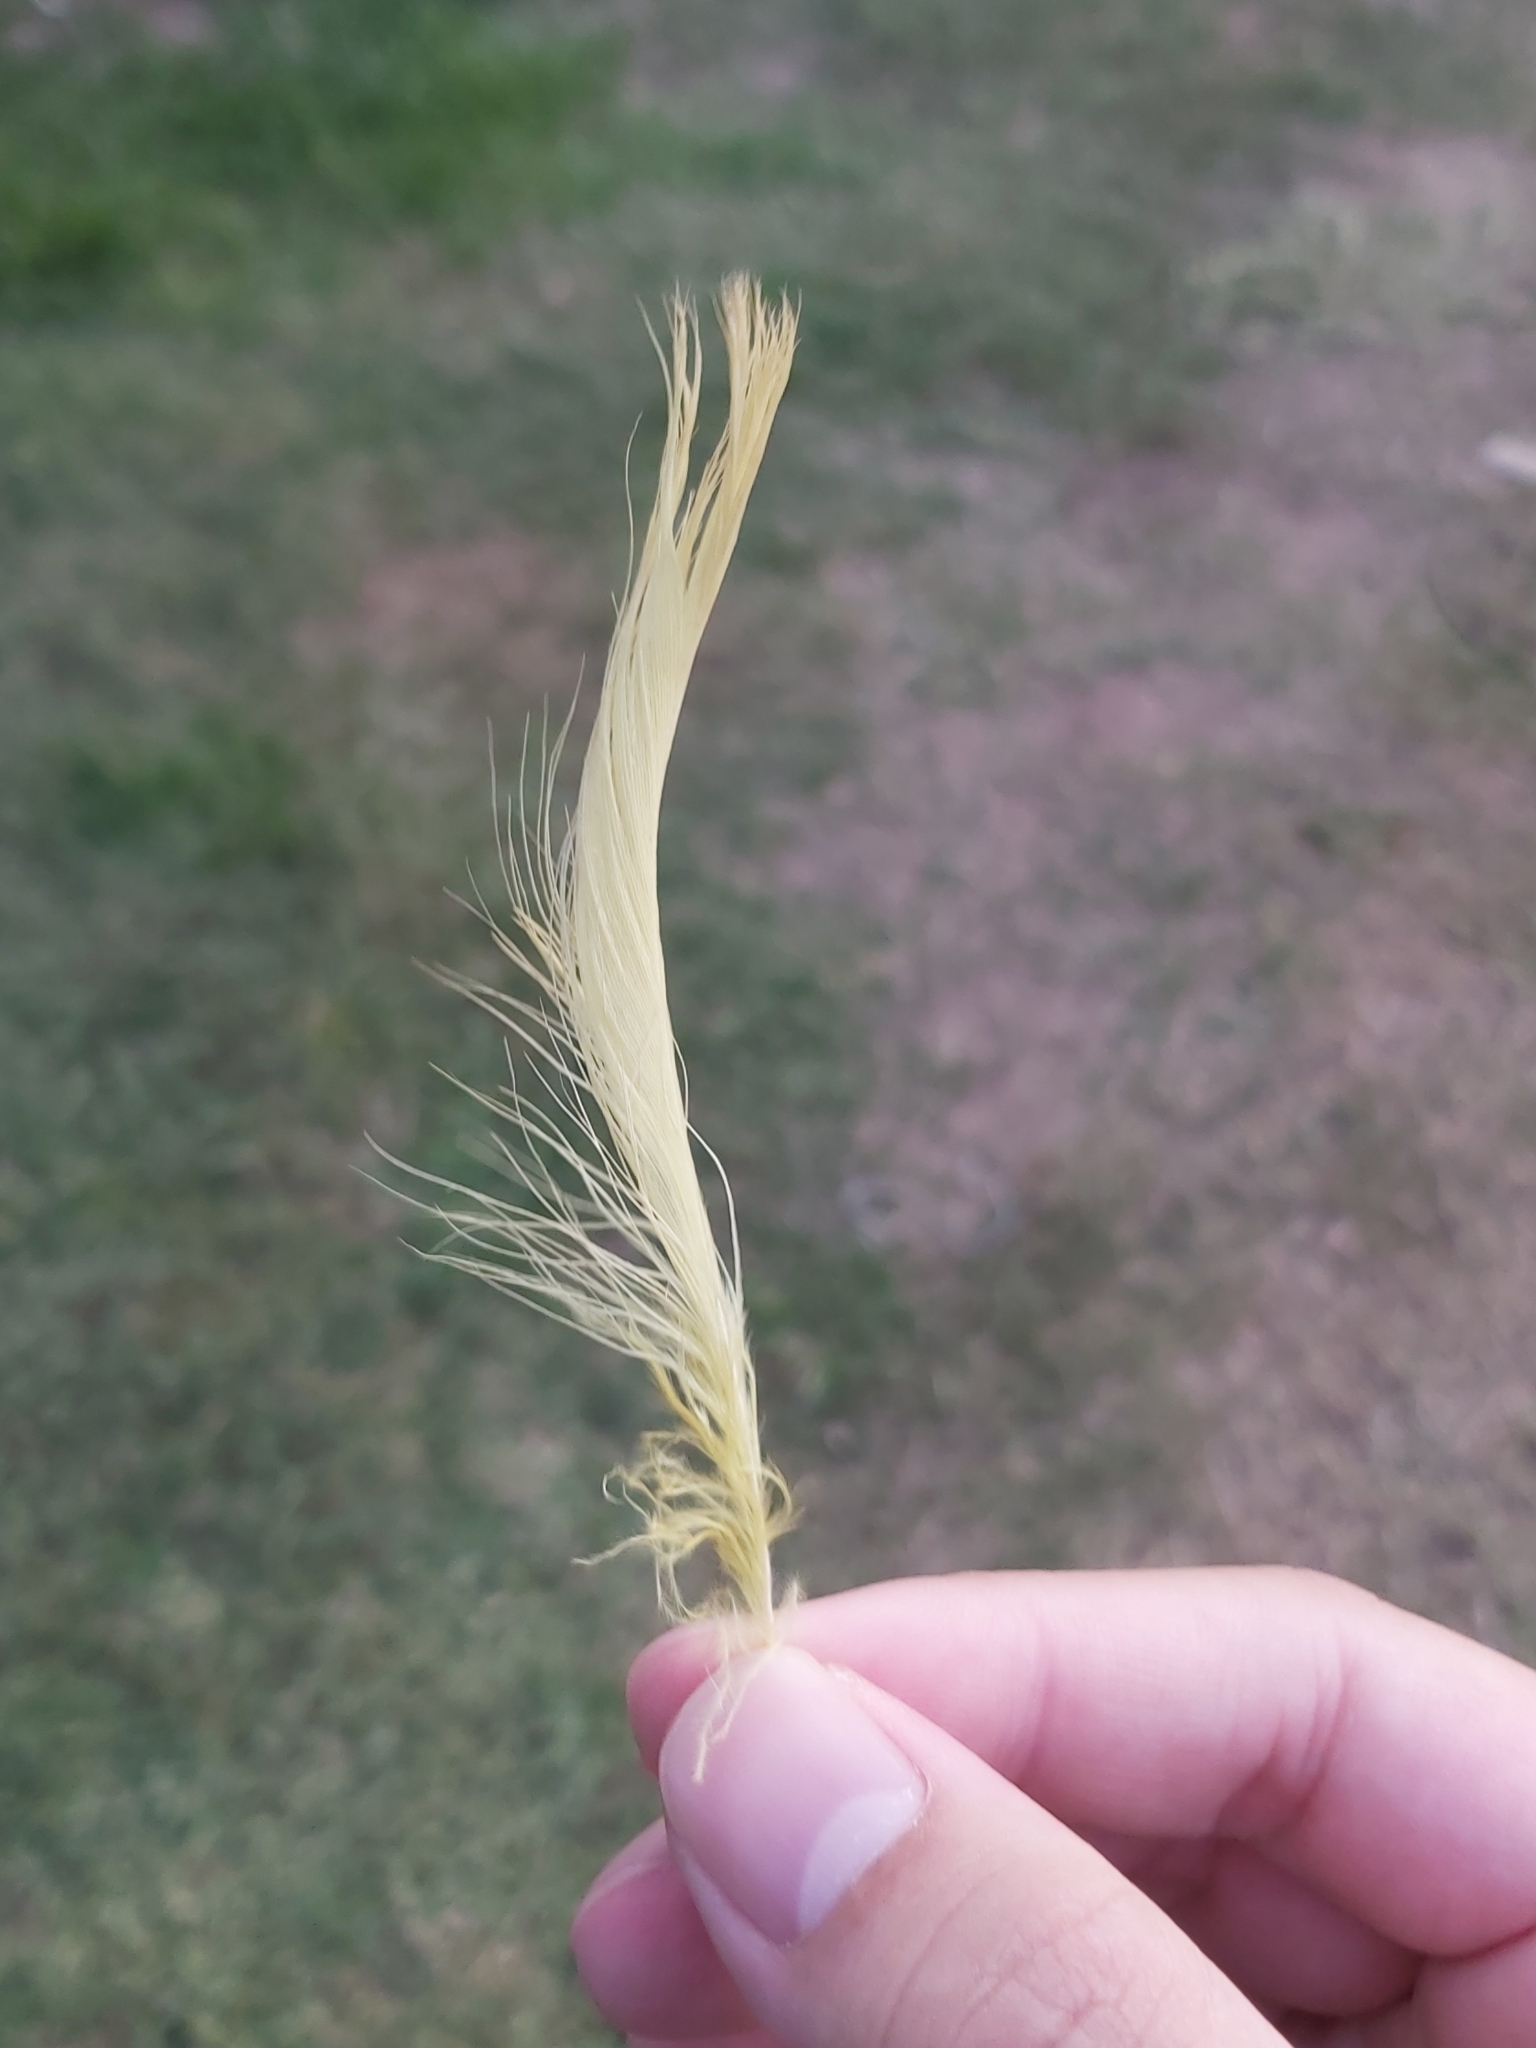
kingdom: Animalia
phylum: Chordata
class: Aves
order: Psittaciformes
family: Psittacidae
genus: Cacatua
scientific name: Cacatua galerita
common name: Sulphur-crested cockatoo
